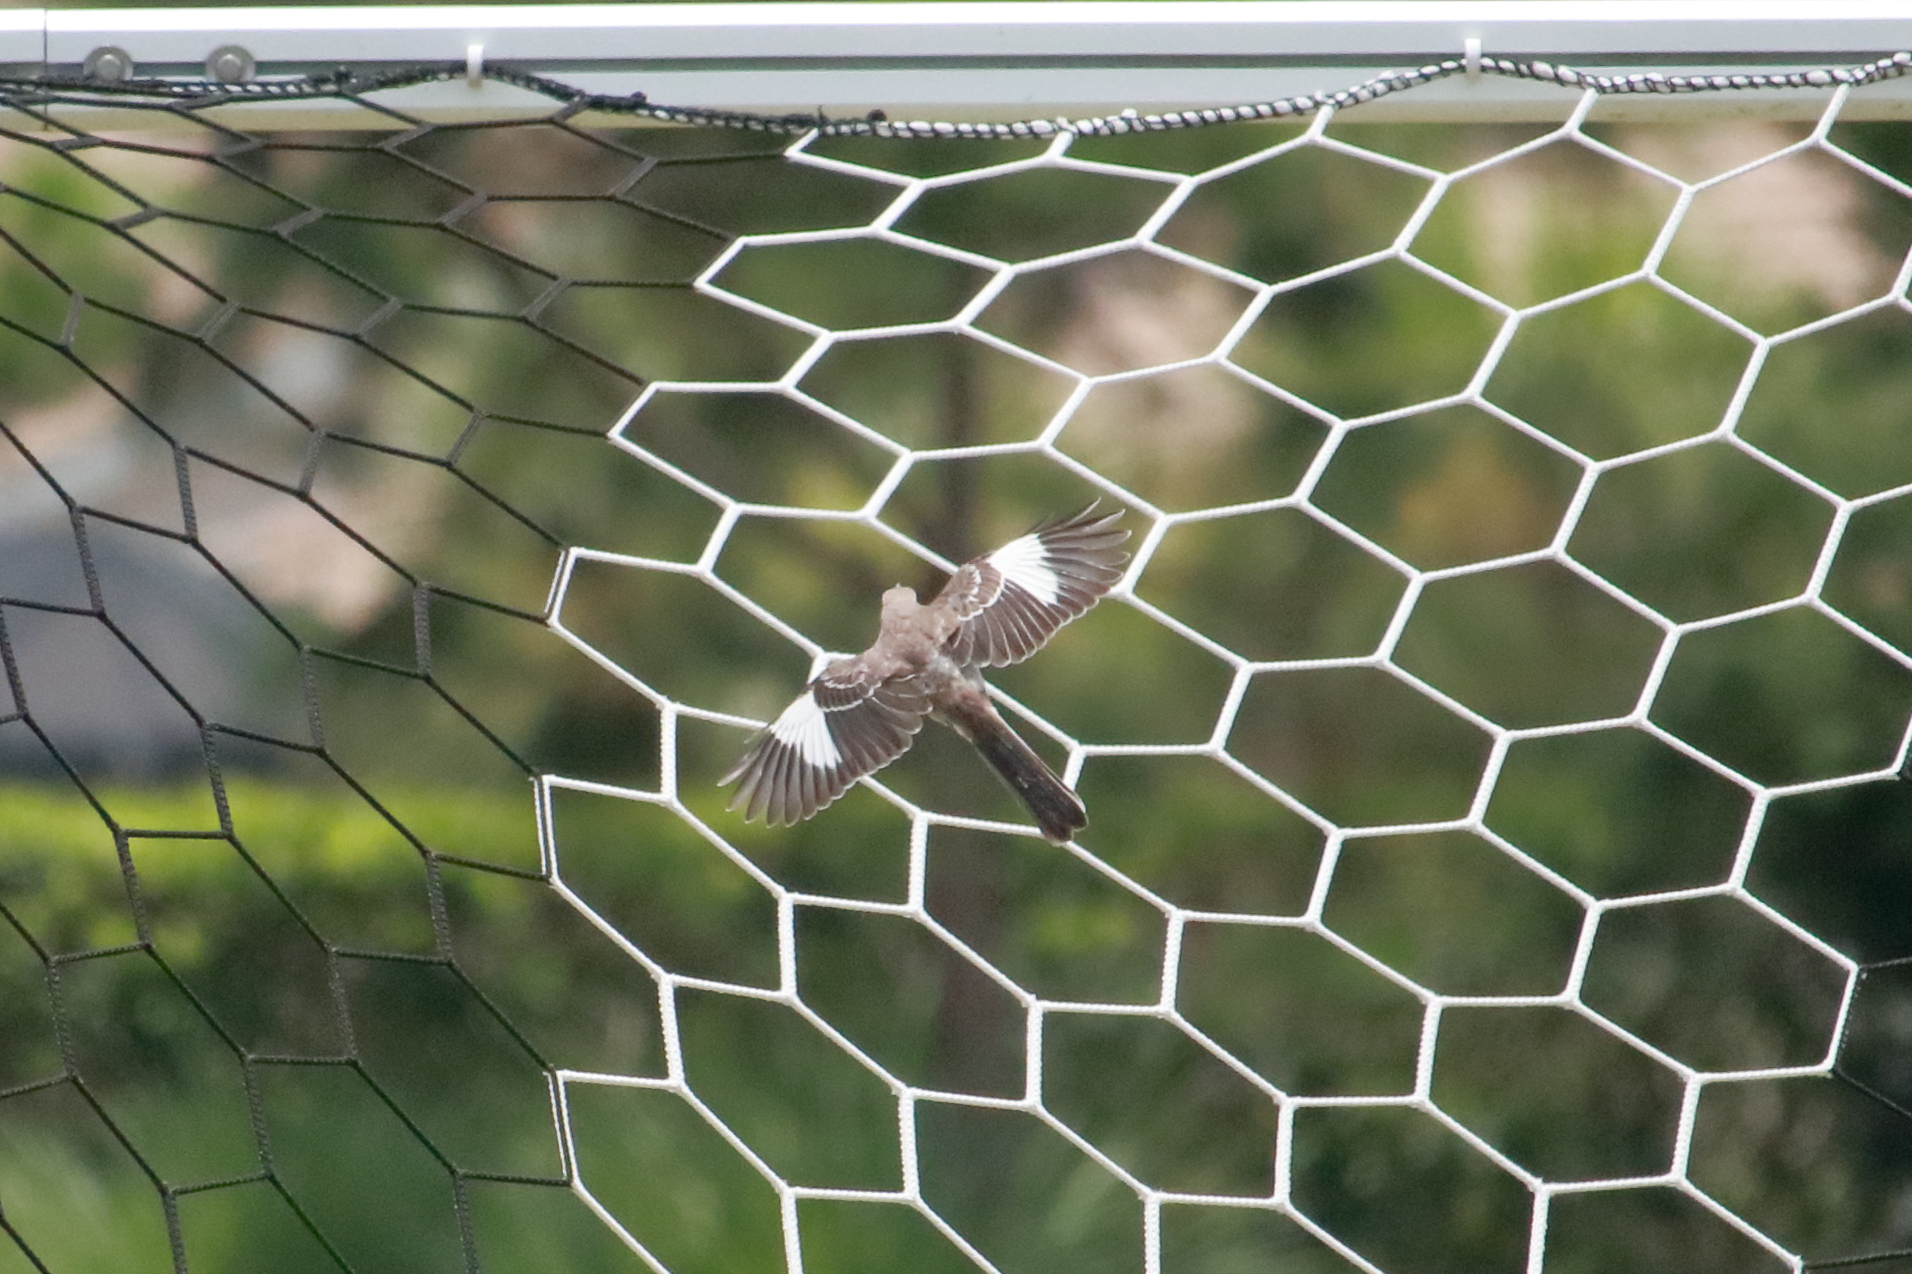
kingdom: Animalia
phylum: Chordata
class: Aves
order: Passeriformes
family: Mimidae
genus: Mimus
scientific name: Mimus polyglottos
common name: Northern mockingbird
